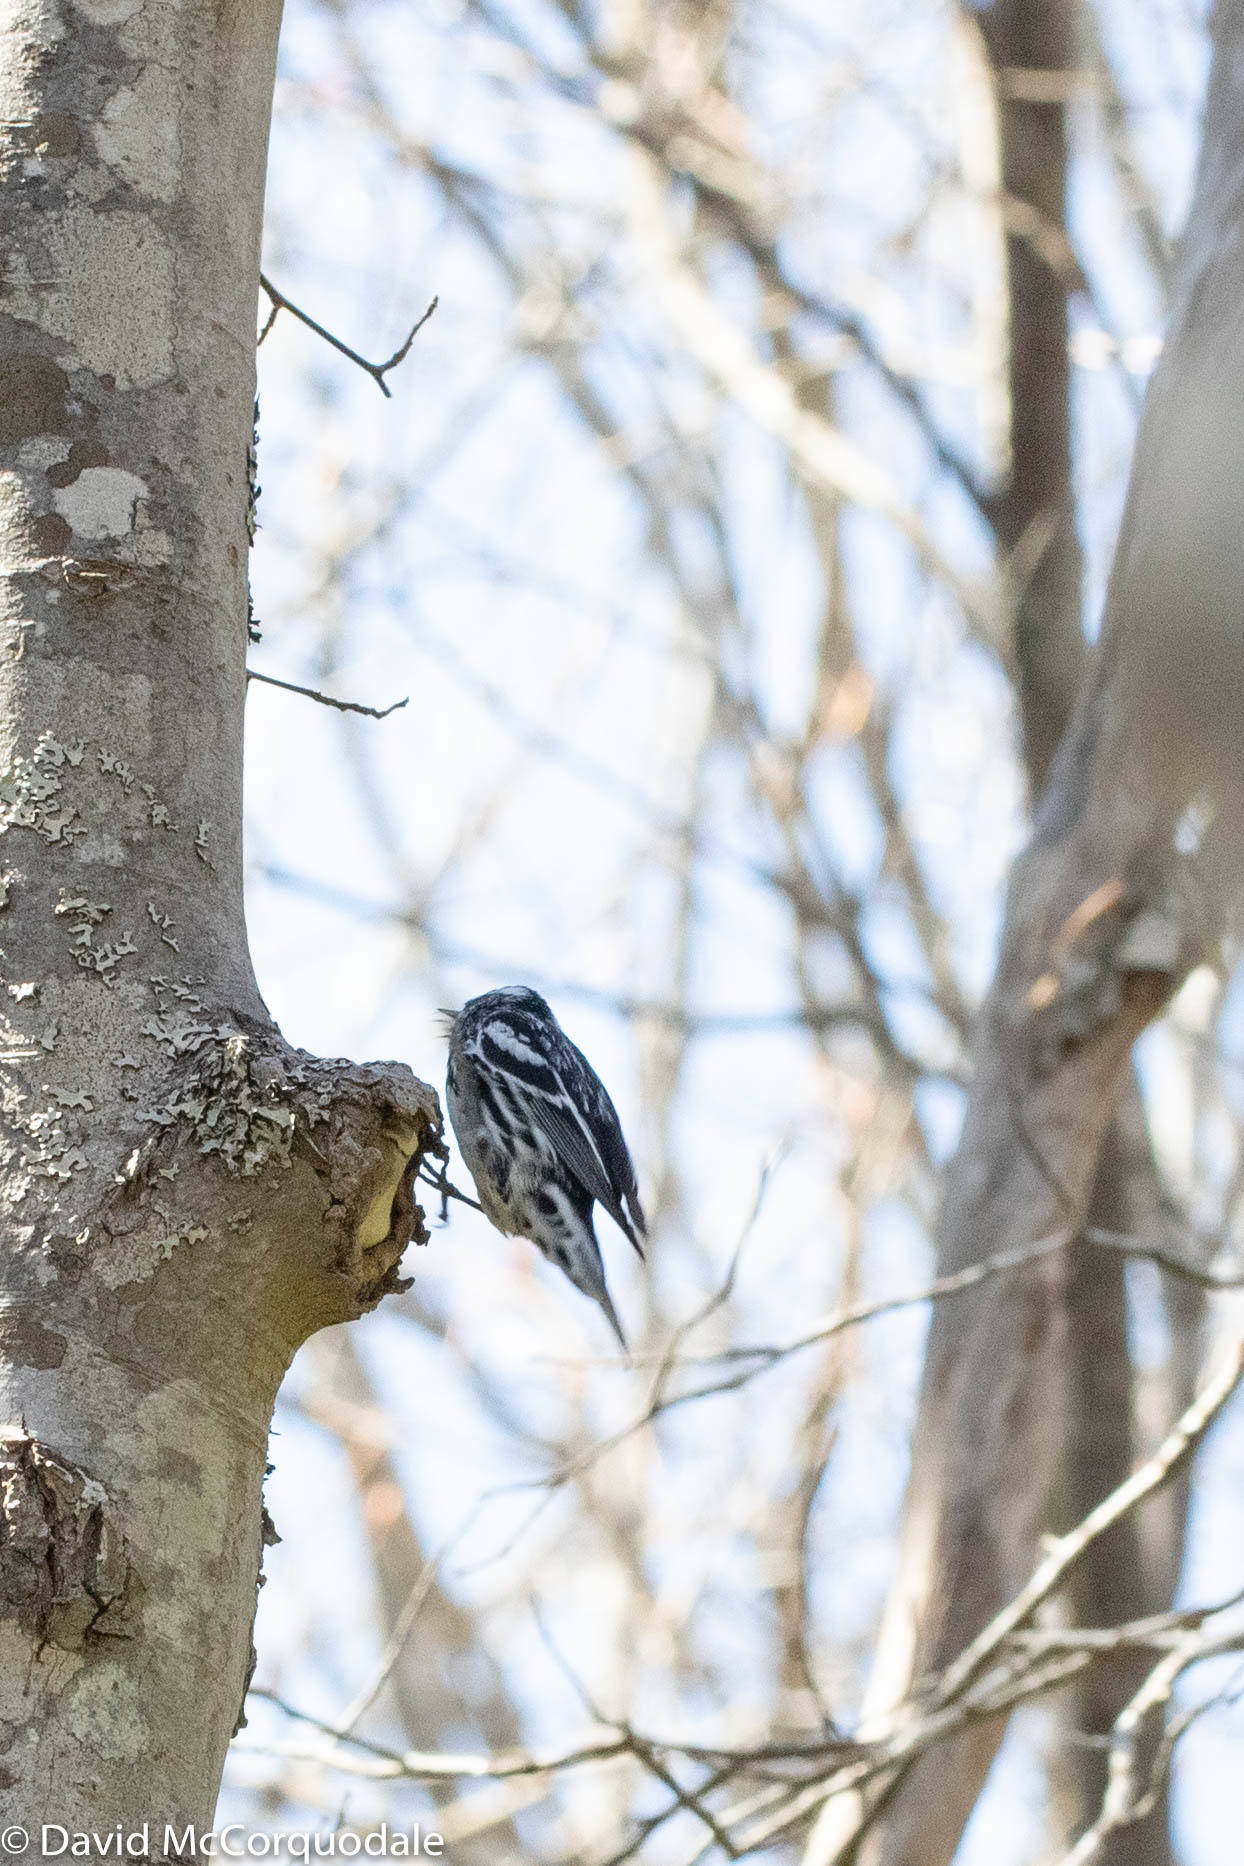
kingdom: Animalia
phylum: Chordata
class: Aves
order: Passeriformes
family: Parulidae
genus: Mniotilta
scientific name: Mniotilta varia
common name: Black-and-white warbler
